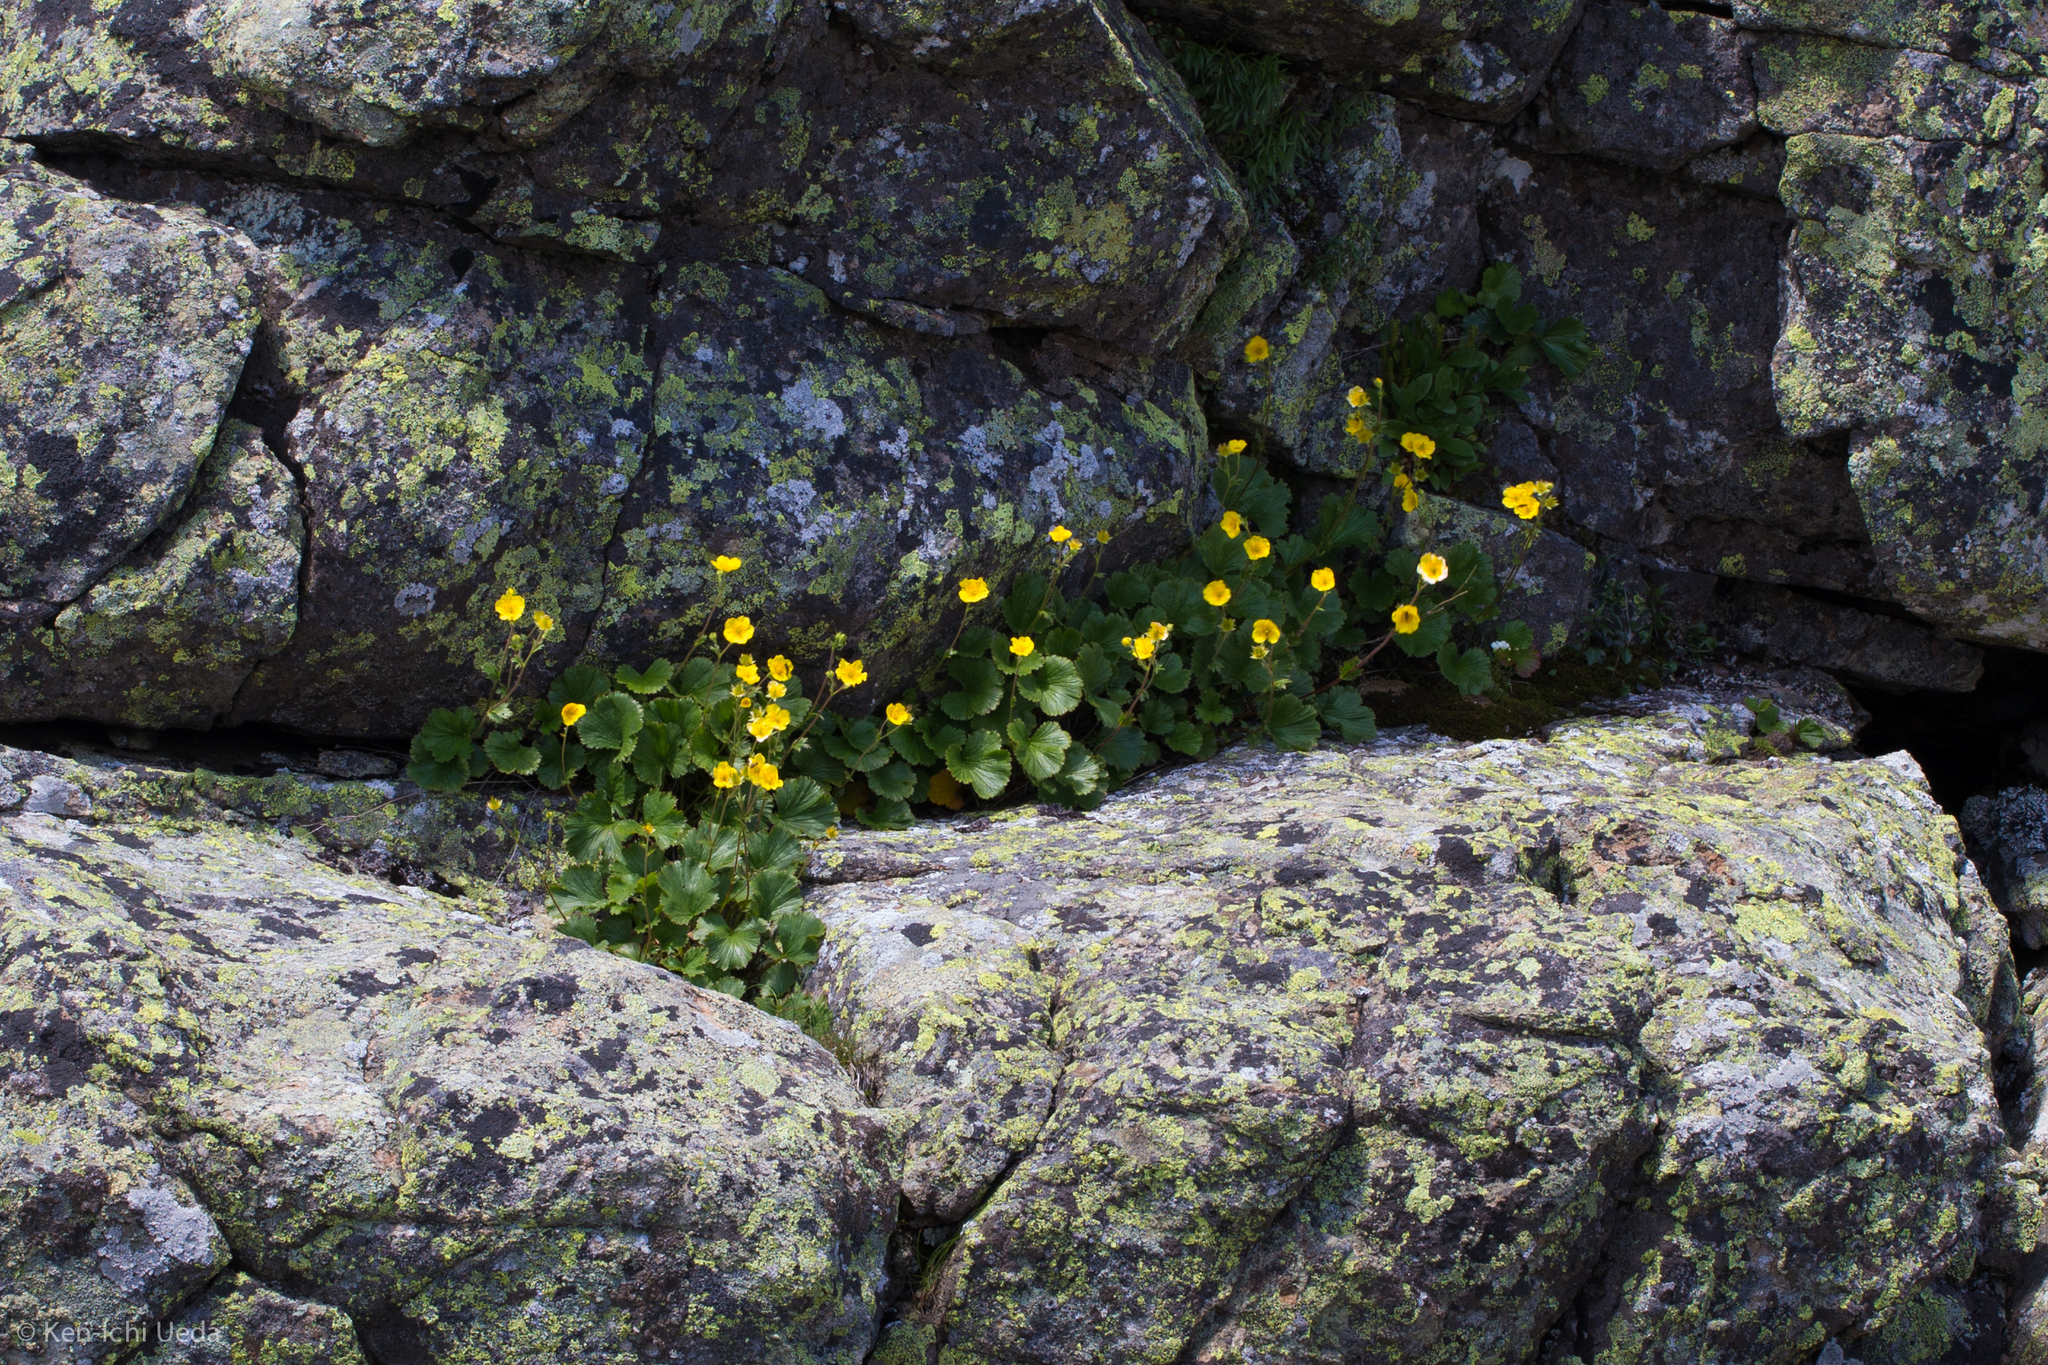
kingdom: Plantae
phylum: Tracheophyta
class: Magnoliopsida
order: Rosales
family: Rosaceae
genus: Geum
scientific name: Geum peckii
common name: Eastern mountain avens
